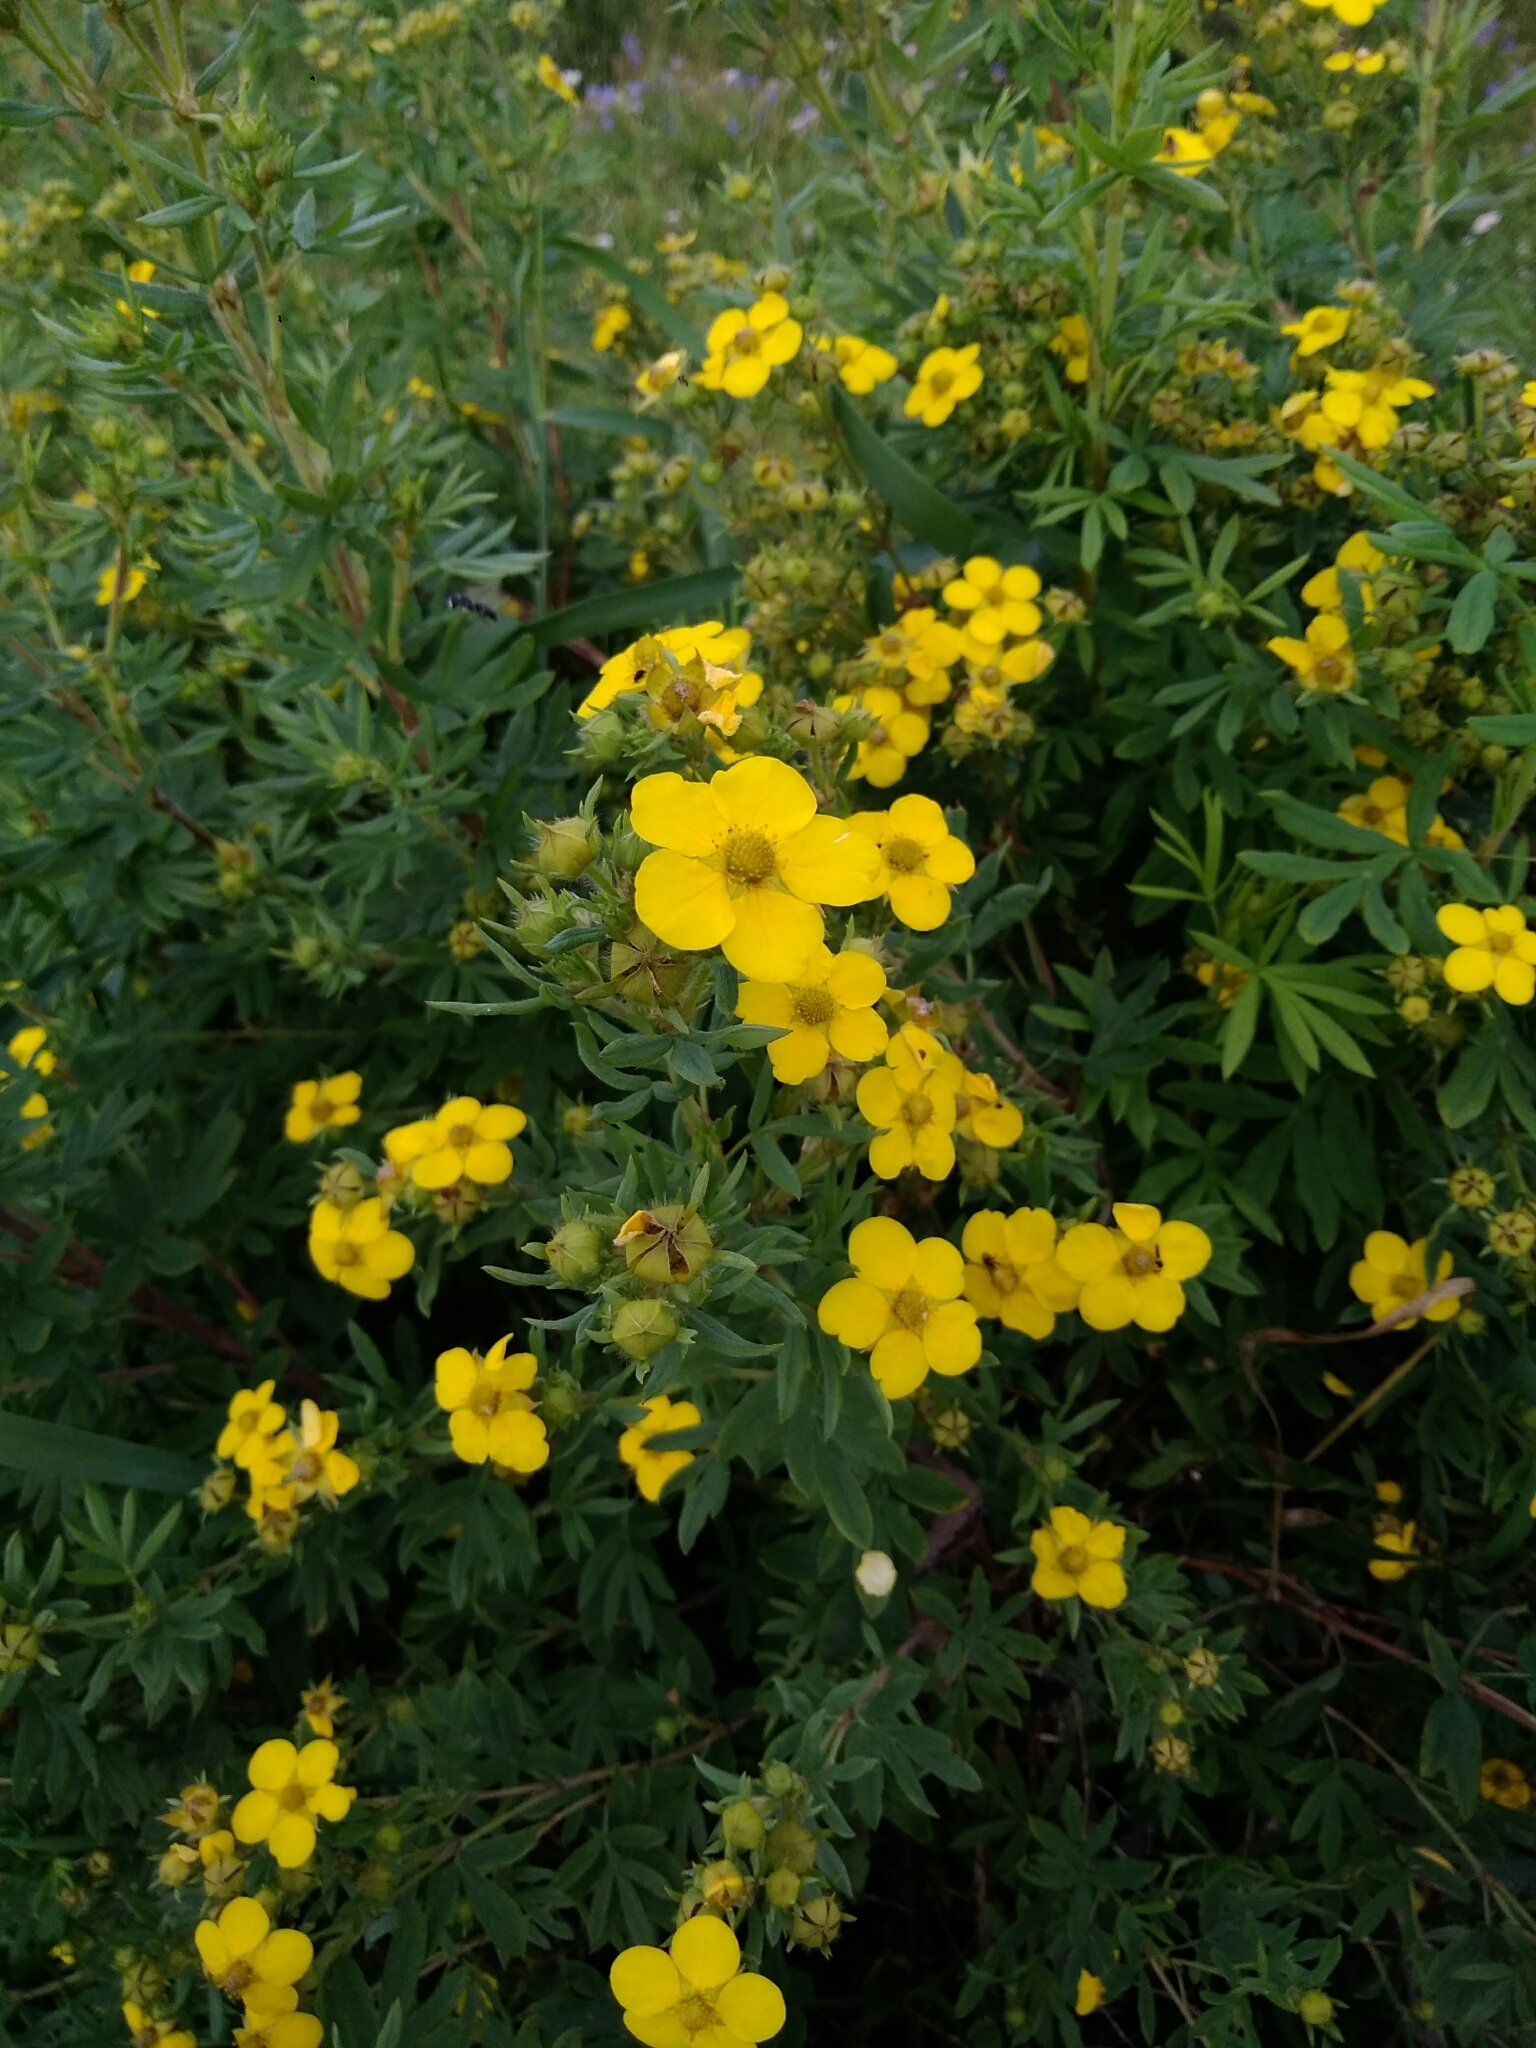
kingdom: Plantae
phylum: Tracheophyta
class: Magnoliopsida
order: Rosales
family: Rosaceae
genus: Dasiphora
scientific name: Dasiphora fruticosa
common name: Shrubby cinquefoil
